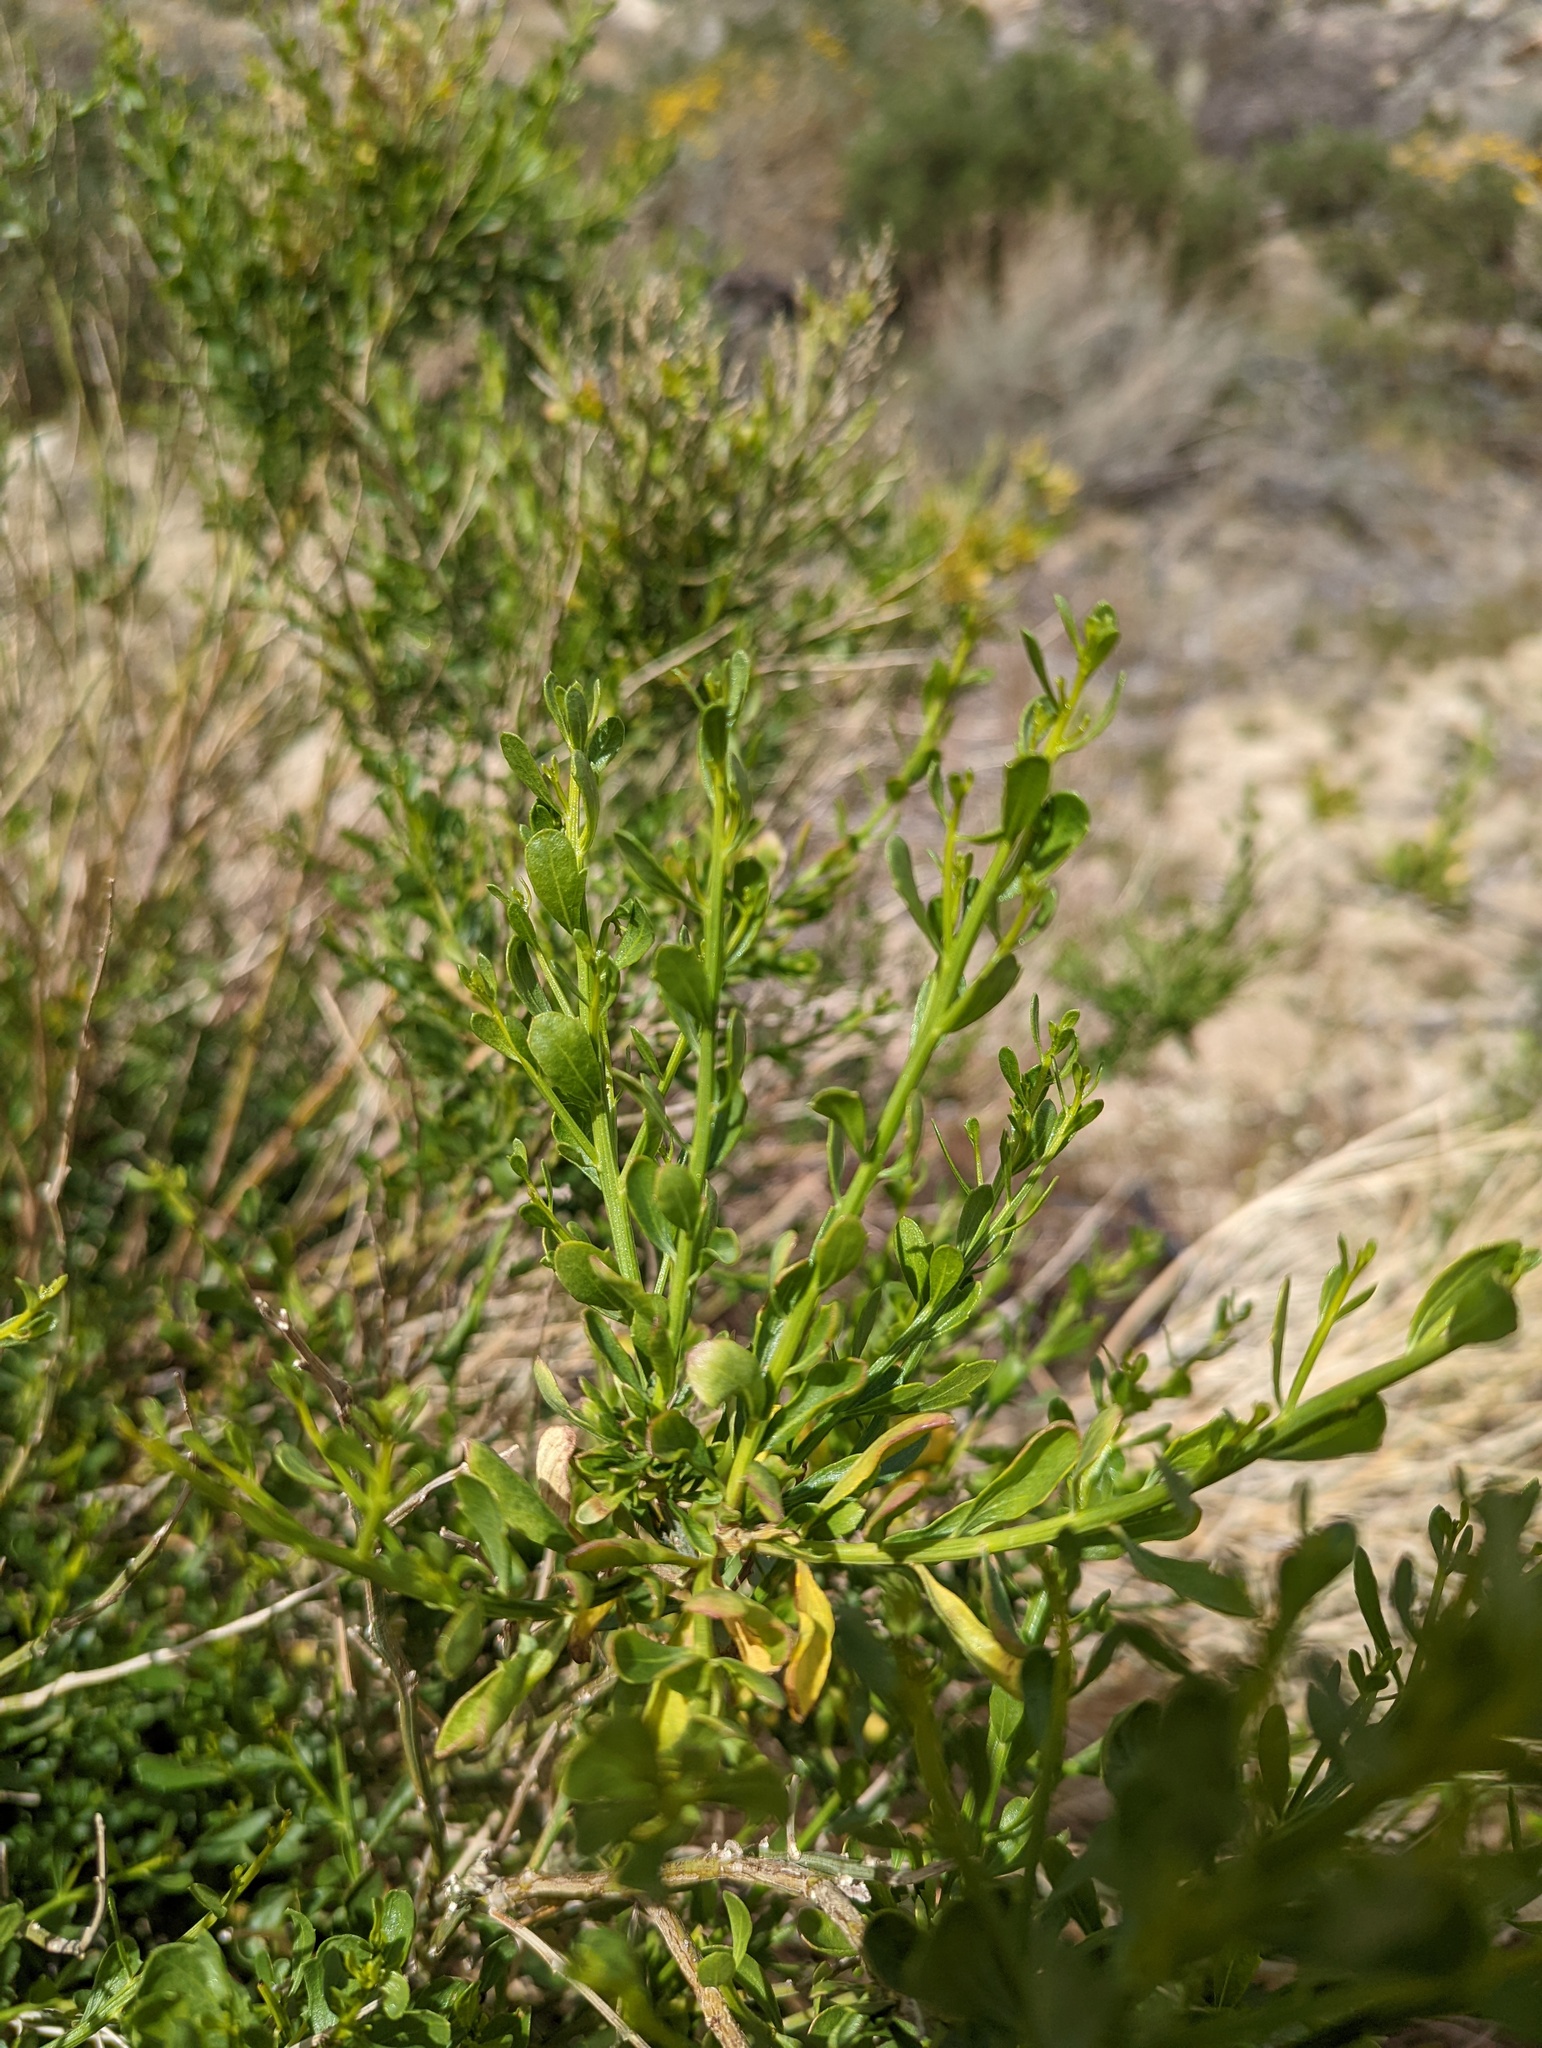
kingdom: Plantae
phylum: Tracheophyta
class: Magnoliopsida
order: Asterales
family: Asteraceae
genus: Baccharis
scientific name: Baccharis sergiloides
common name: Desert baccharis
